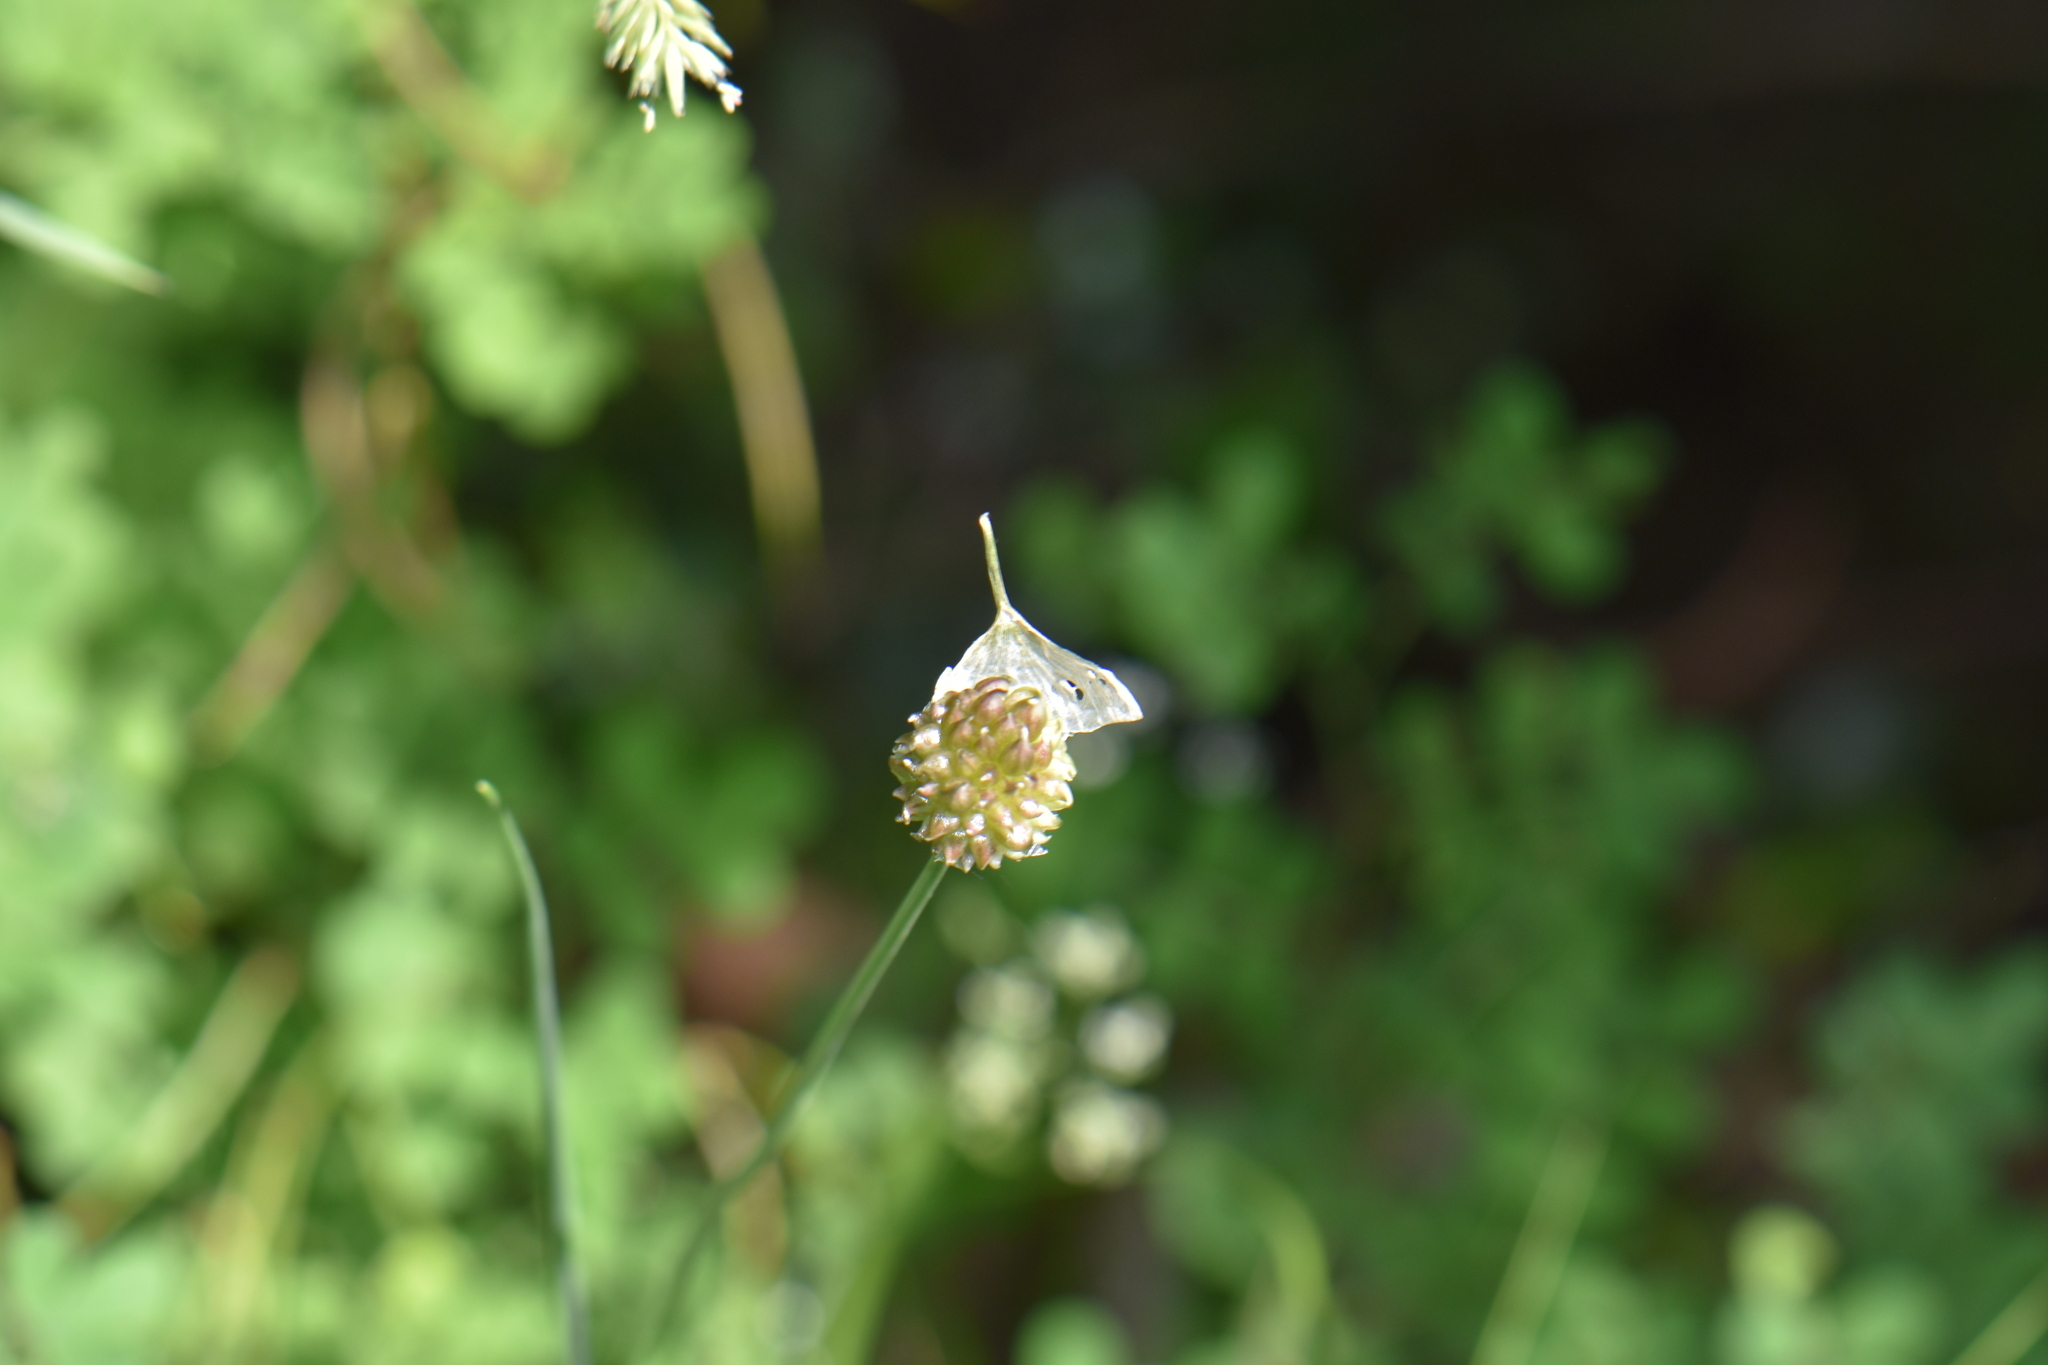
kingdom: Plantae
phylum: Tracheophyta
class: Liliopsida
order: Asparagales
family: Amaryllidaceae
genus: Allium
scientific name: Allium vineale
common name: Crow garlic
